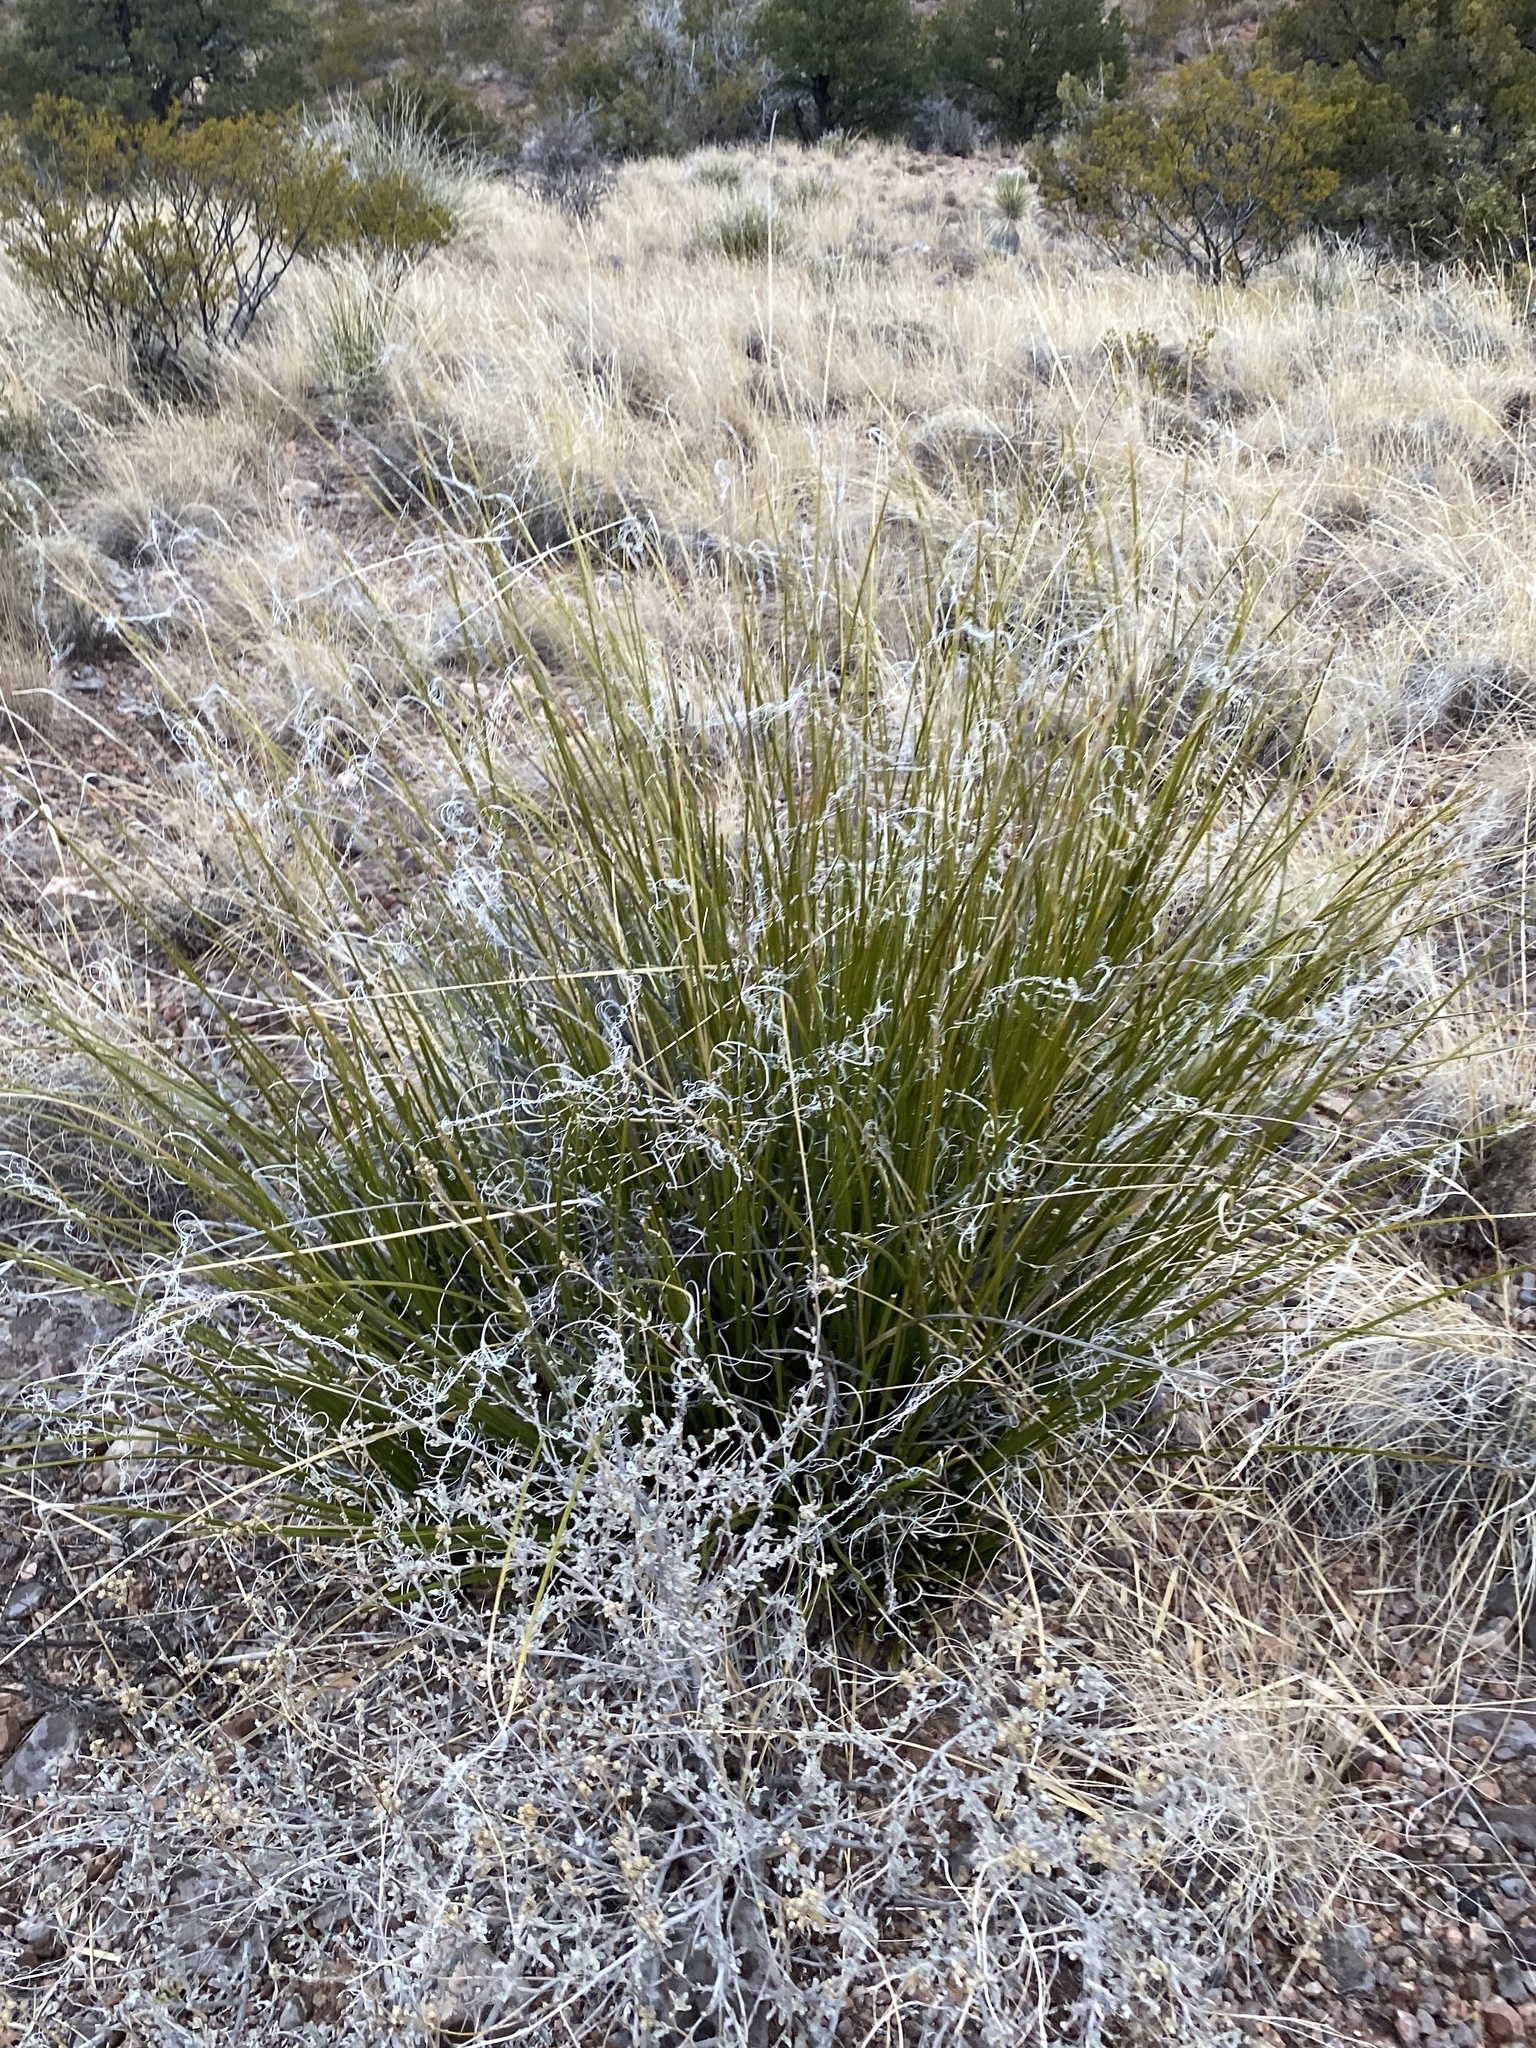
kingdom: Plantae
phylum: Tracheophyta
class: Liliopsida
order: Asparagales
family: Asparagaceae
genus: Nolina
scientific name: Nolina microcarpa
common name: Bear-grass
